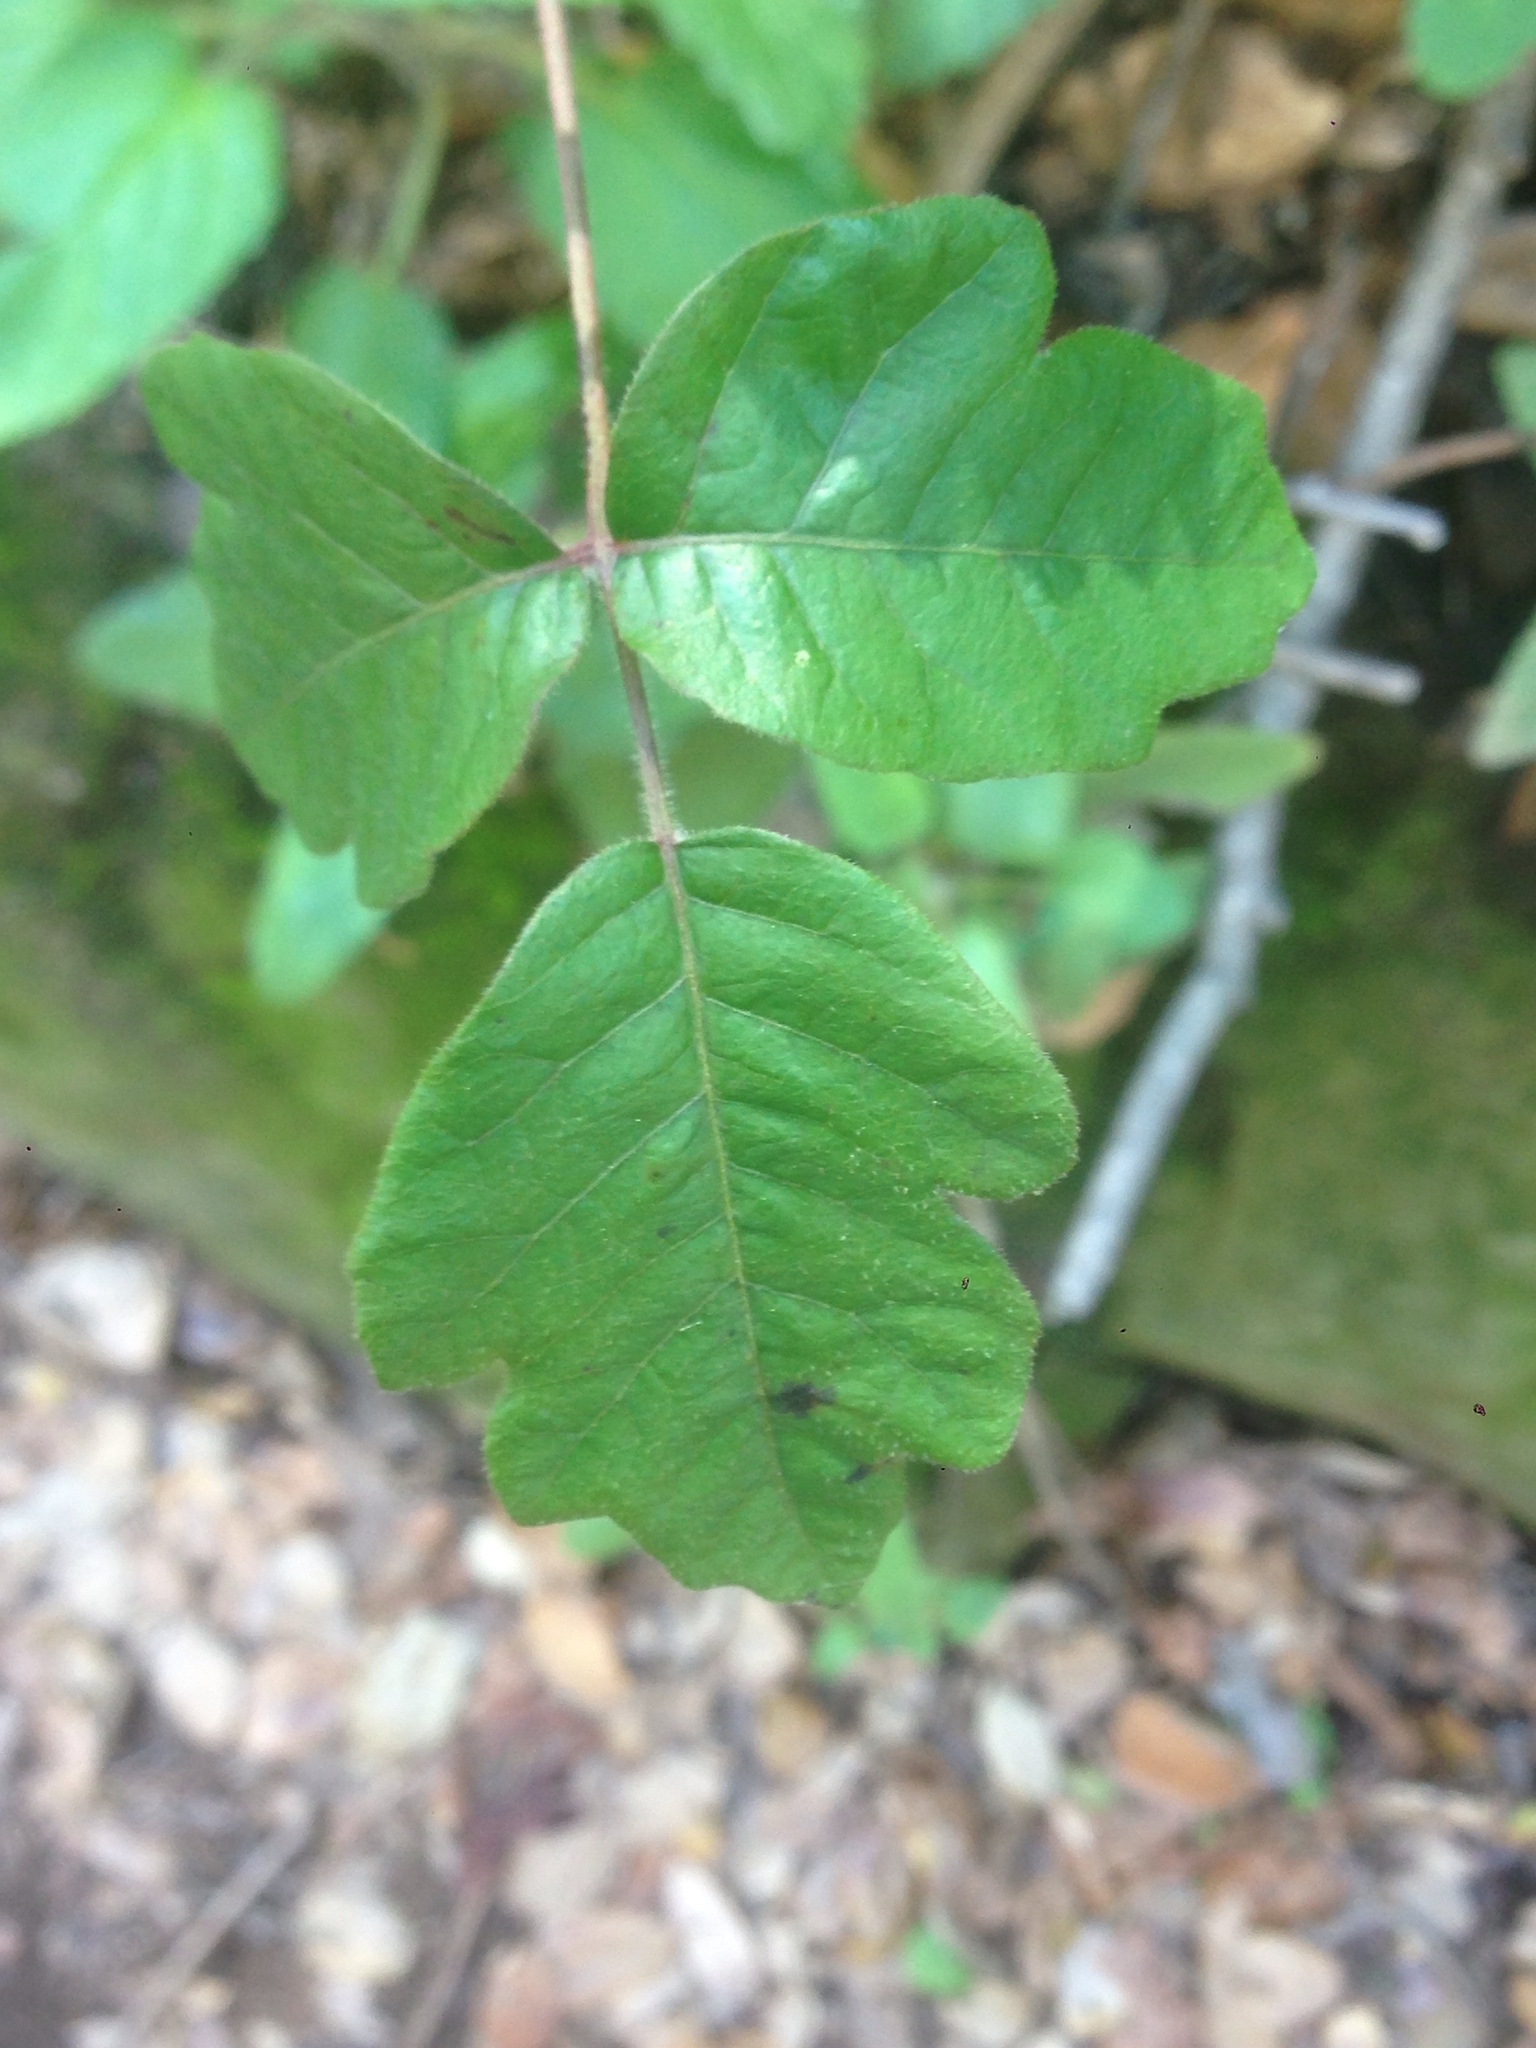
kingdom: Plantae
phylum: Tracheophyta
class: Magnoliopsida
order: Sapindales
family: Anacardiaceae
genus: Toxicodendron
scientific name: Toxicodendron diversilobum
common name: Pacific poison-oak
